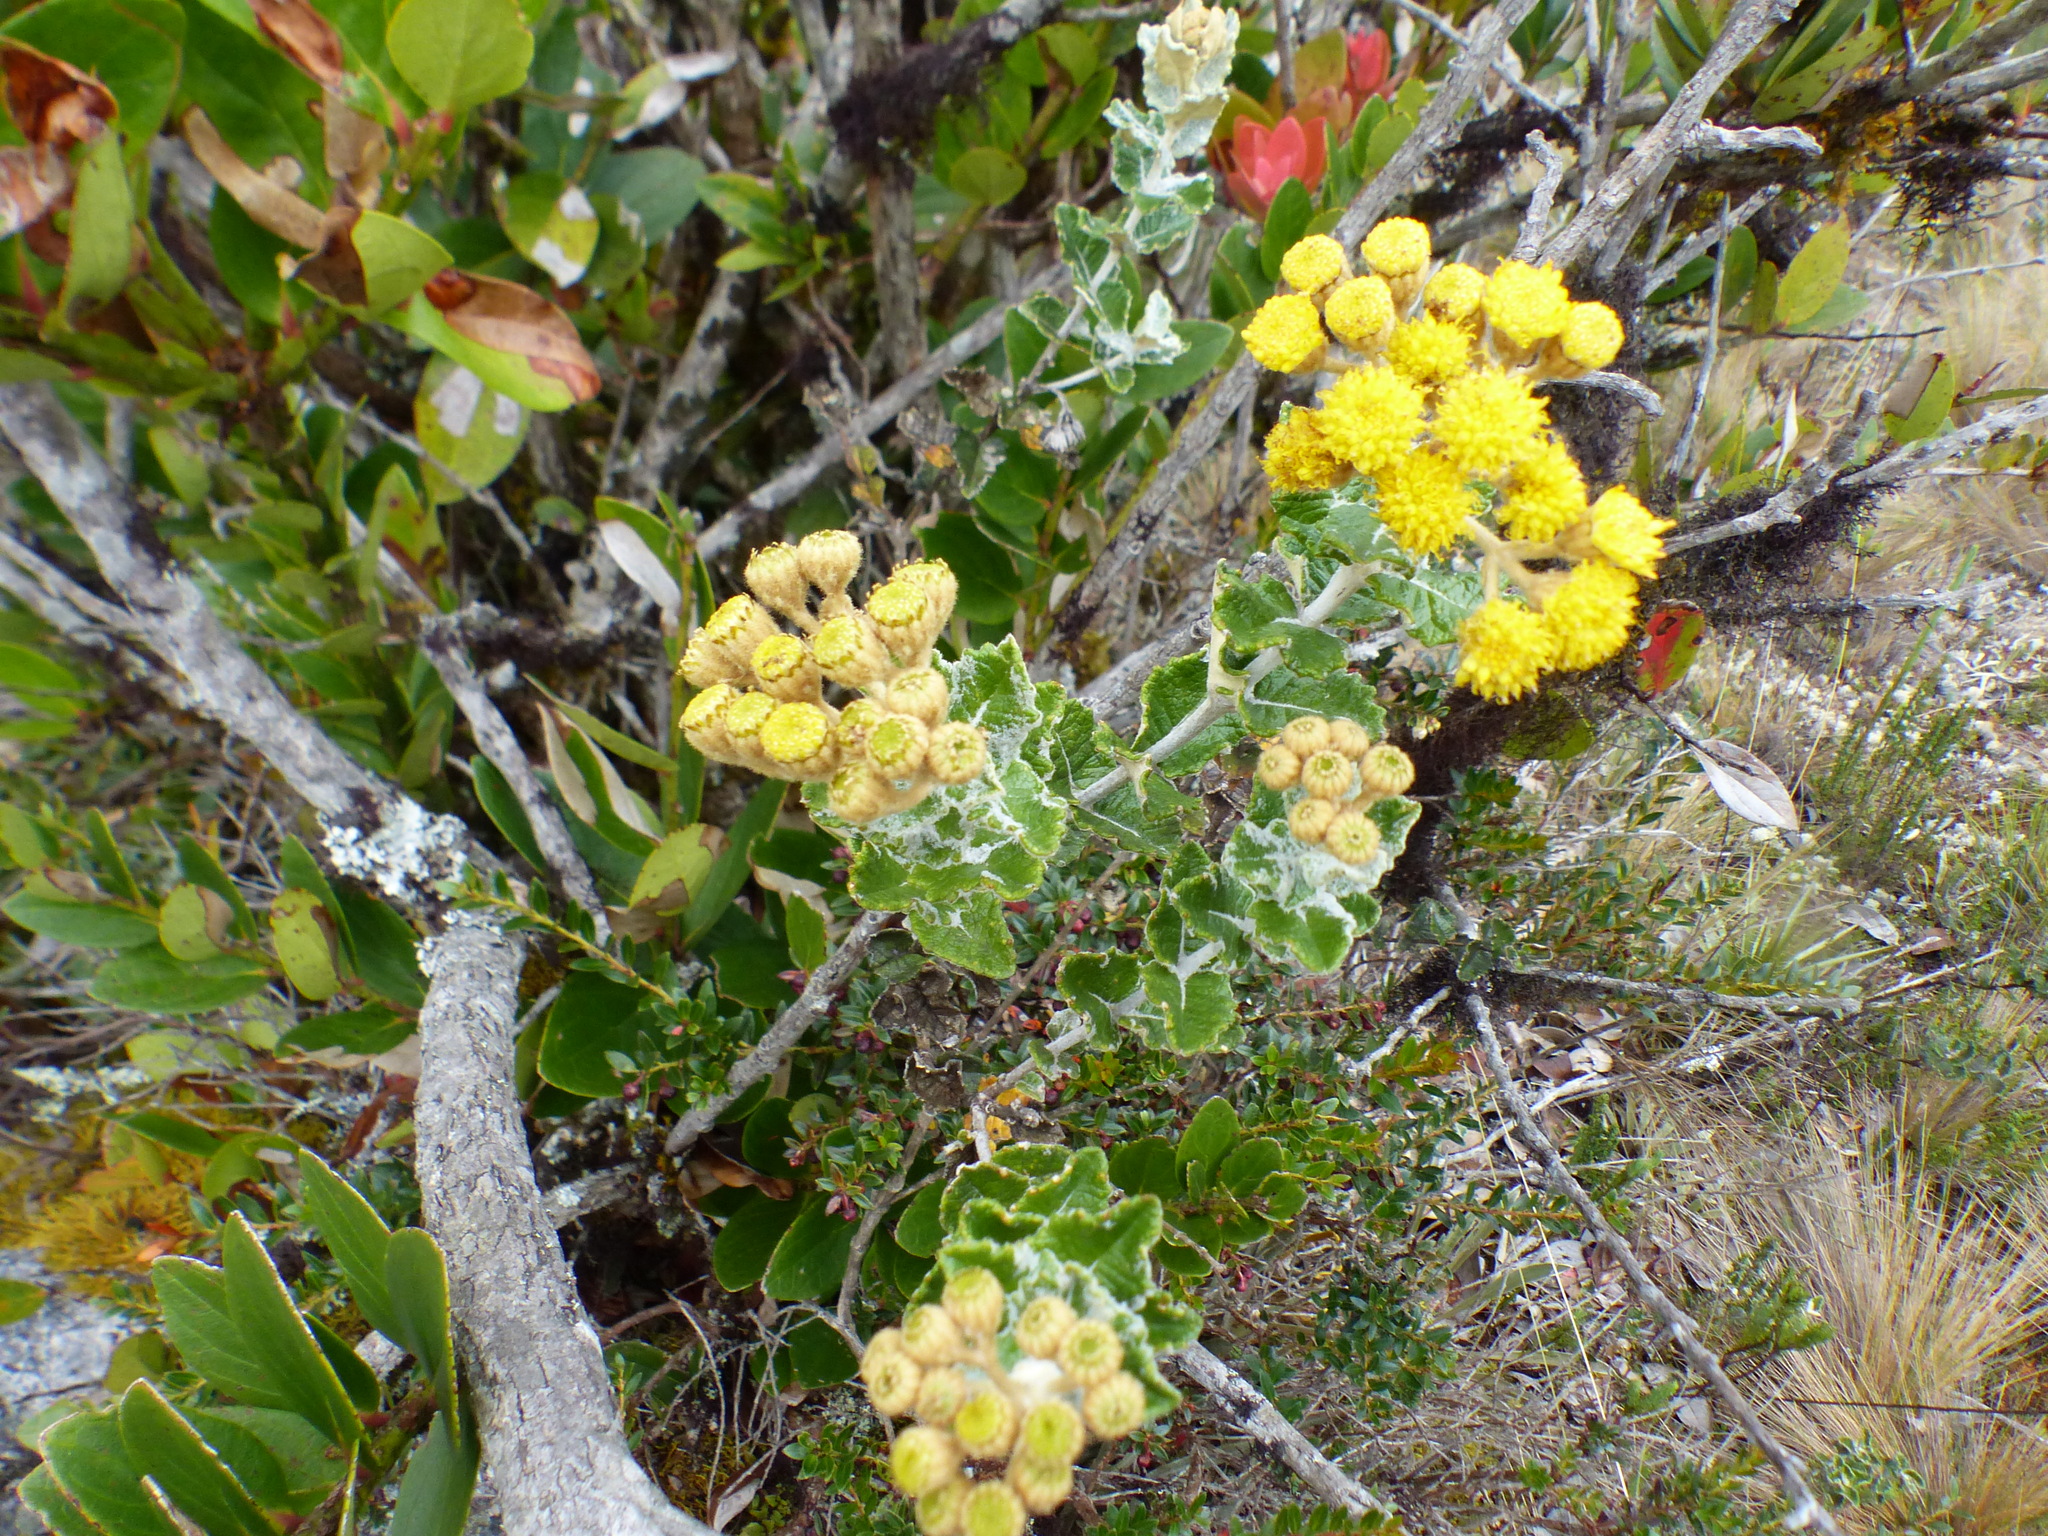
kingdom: Plantae
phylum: Tracheophyta
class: Magnoliopsida
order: Asterales
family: Asteraceae
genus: Scrobicaria
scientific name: Scrobicaria ilicifolia
